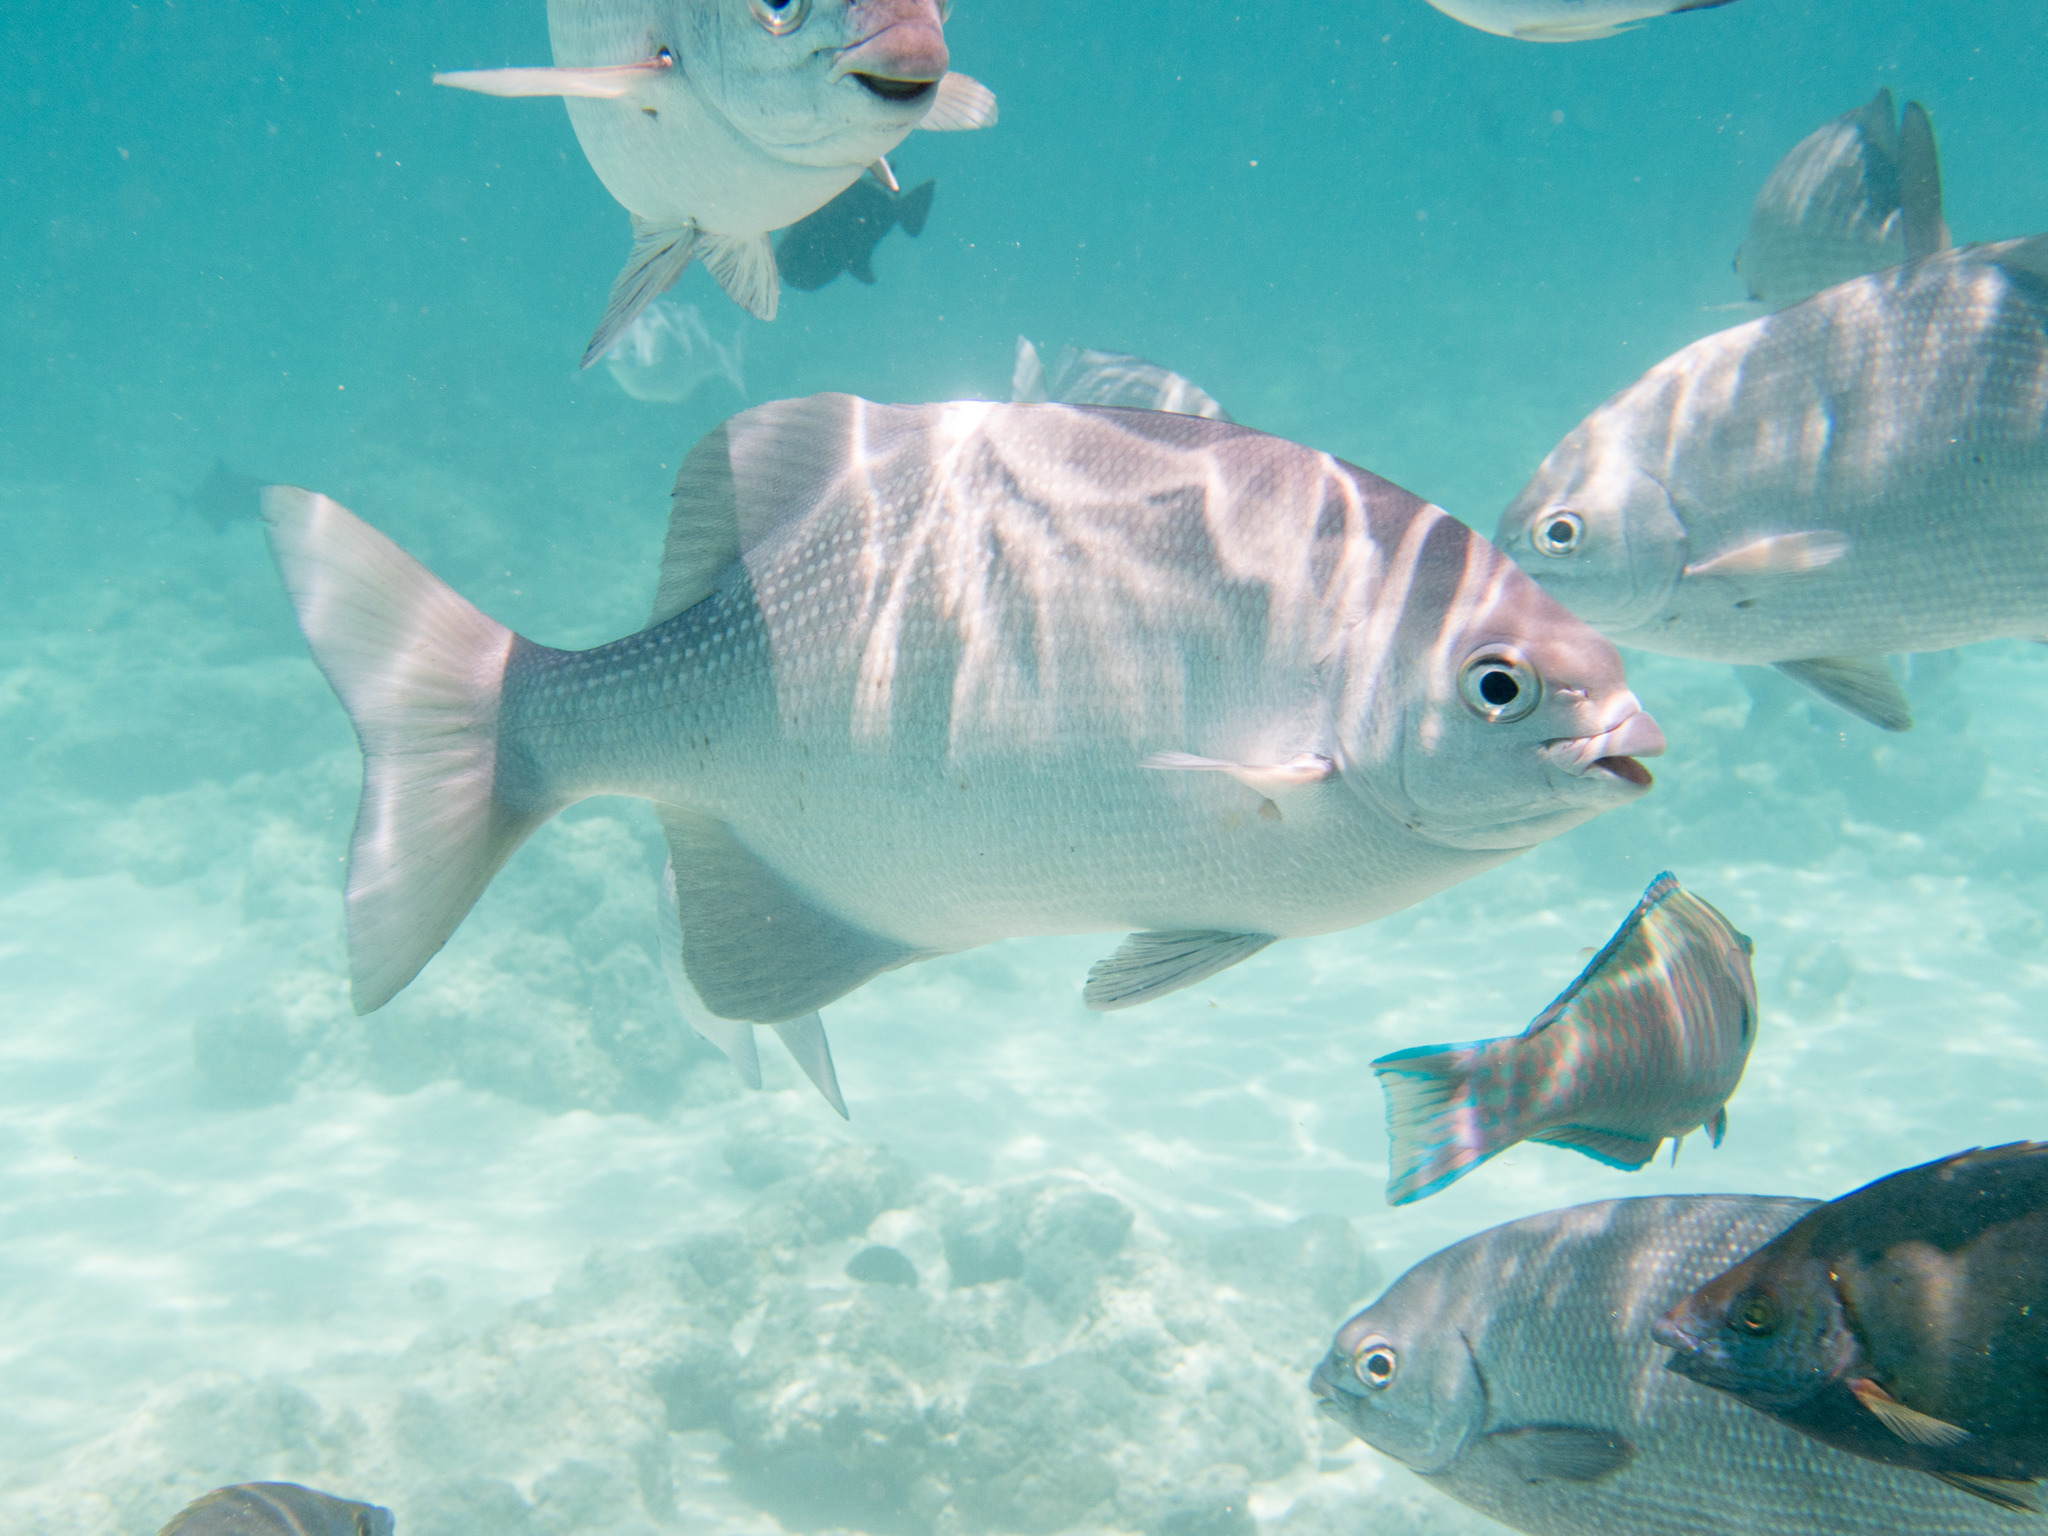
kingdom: Animalia
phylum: Chordata
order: Perciformes
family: Kyphosidae
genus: Kyphosus
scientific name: Kyphosus cinerascens
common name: Topsail drummer
